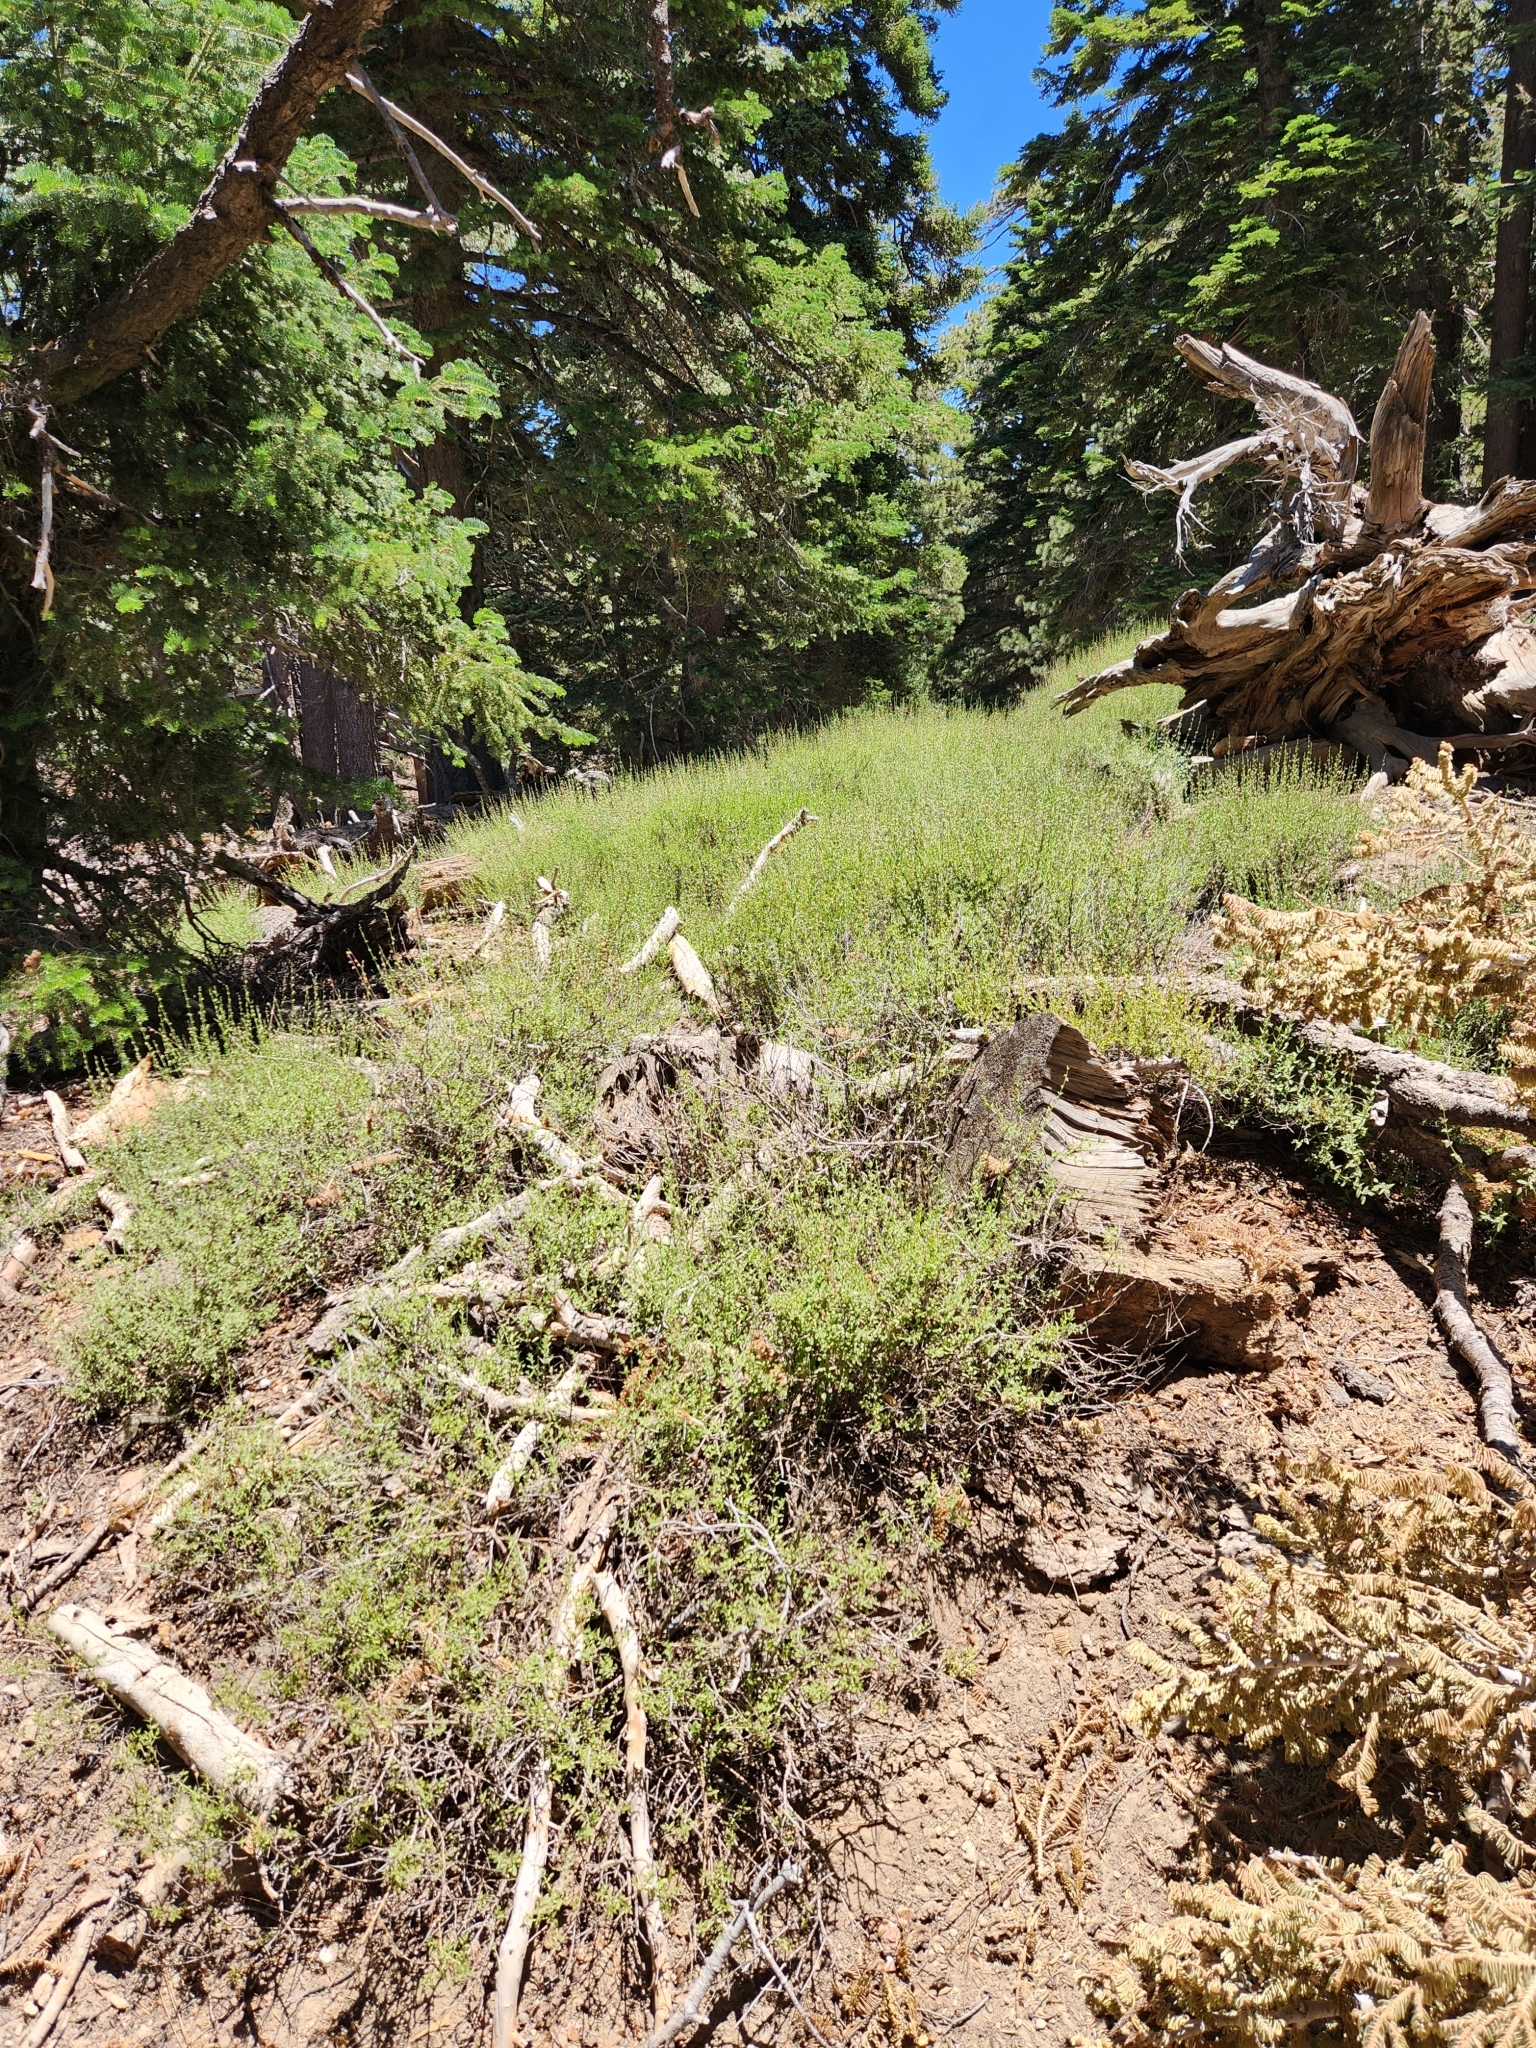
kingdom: Plantae
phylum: Tracheophyta
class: Magnoliopsida
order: Lamiales
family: Plantaginaceae
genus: Keckiella
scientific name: Keckiella rothrockii
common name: Rothrock's keckiella
